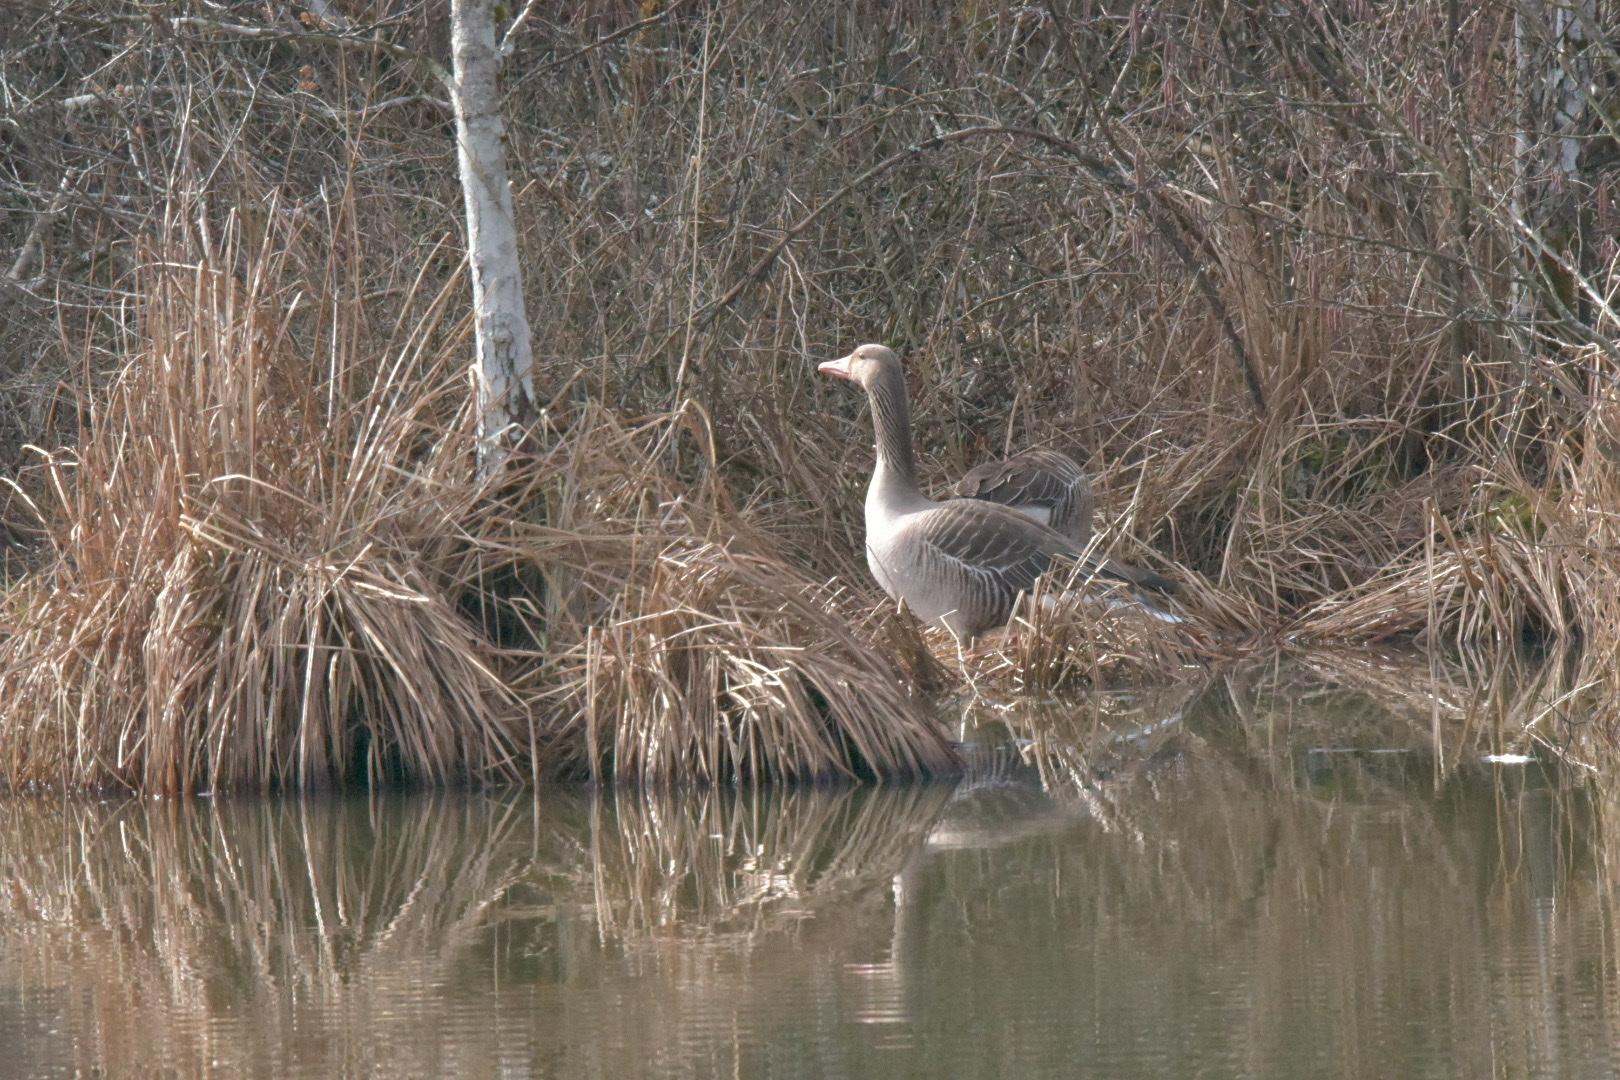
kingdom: Animalia
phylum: Chordata
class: Aves
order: Anseriformes
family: Anatidae
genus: Anser
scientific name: Anser anser
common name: Greylag goose
